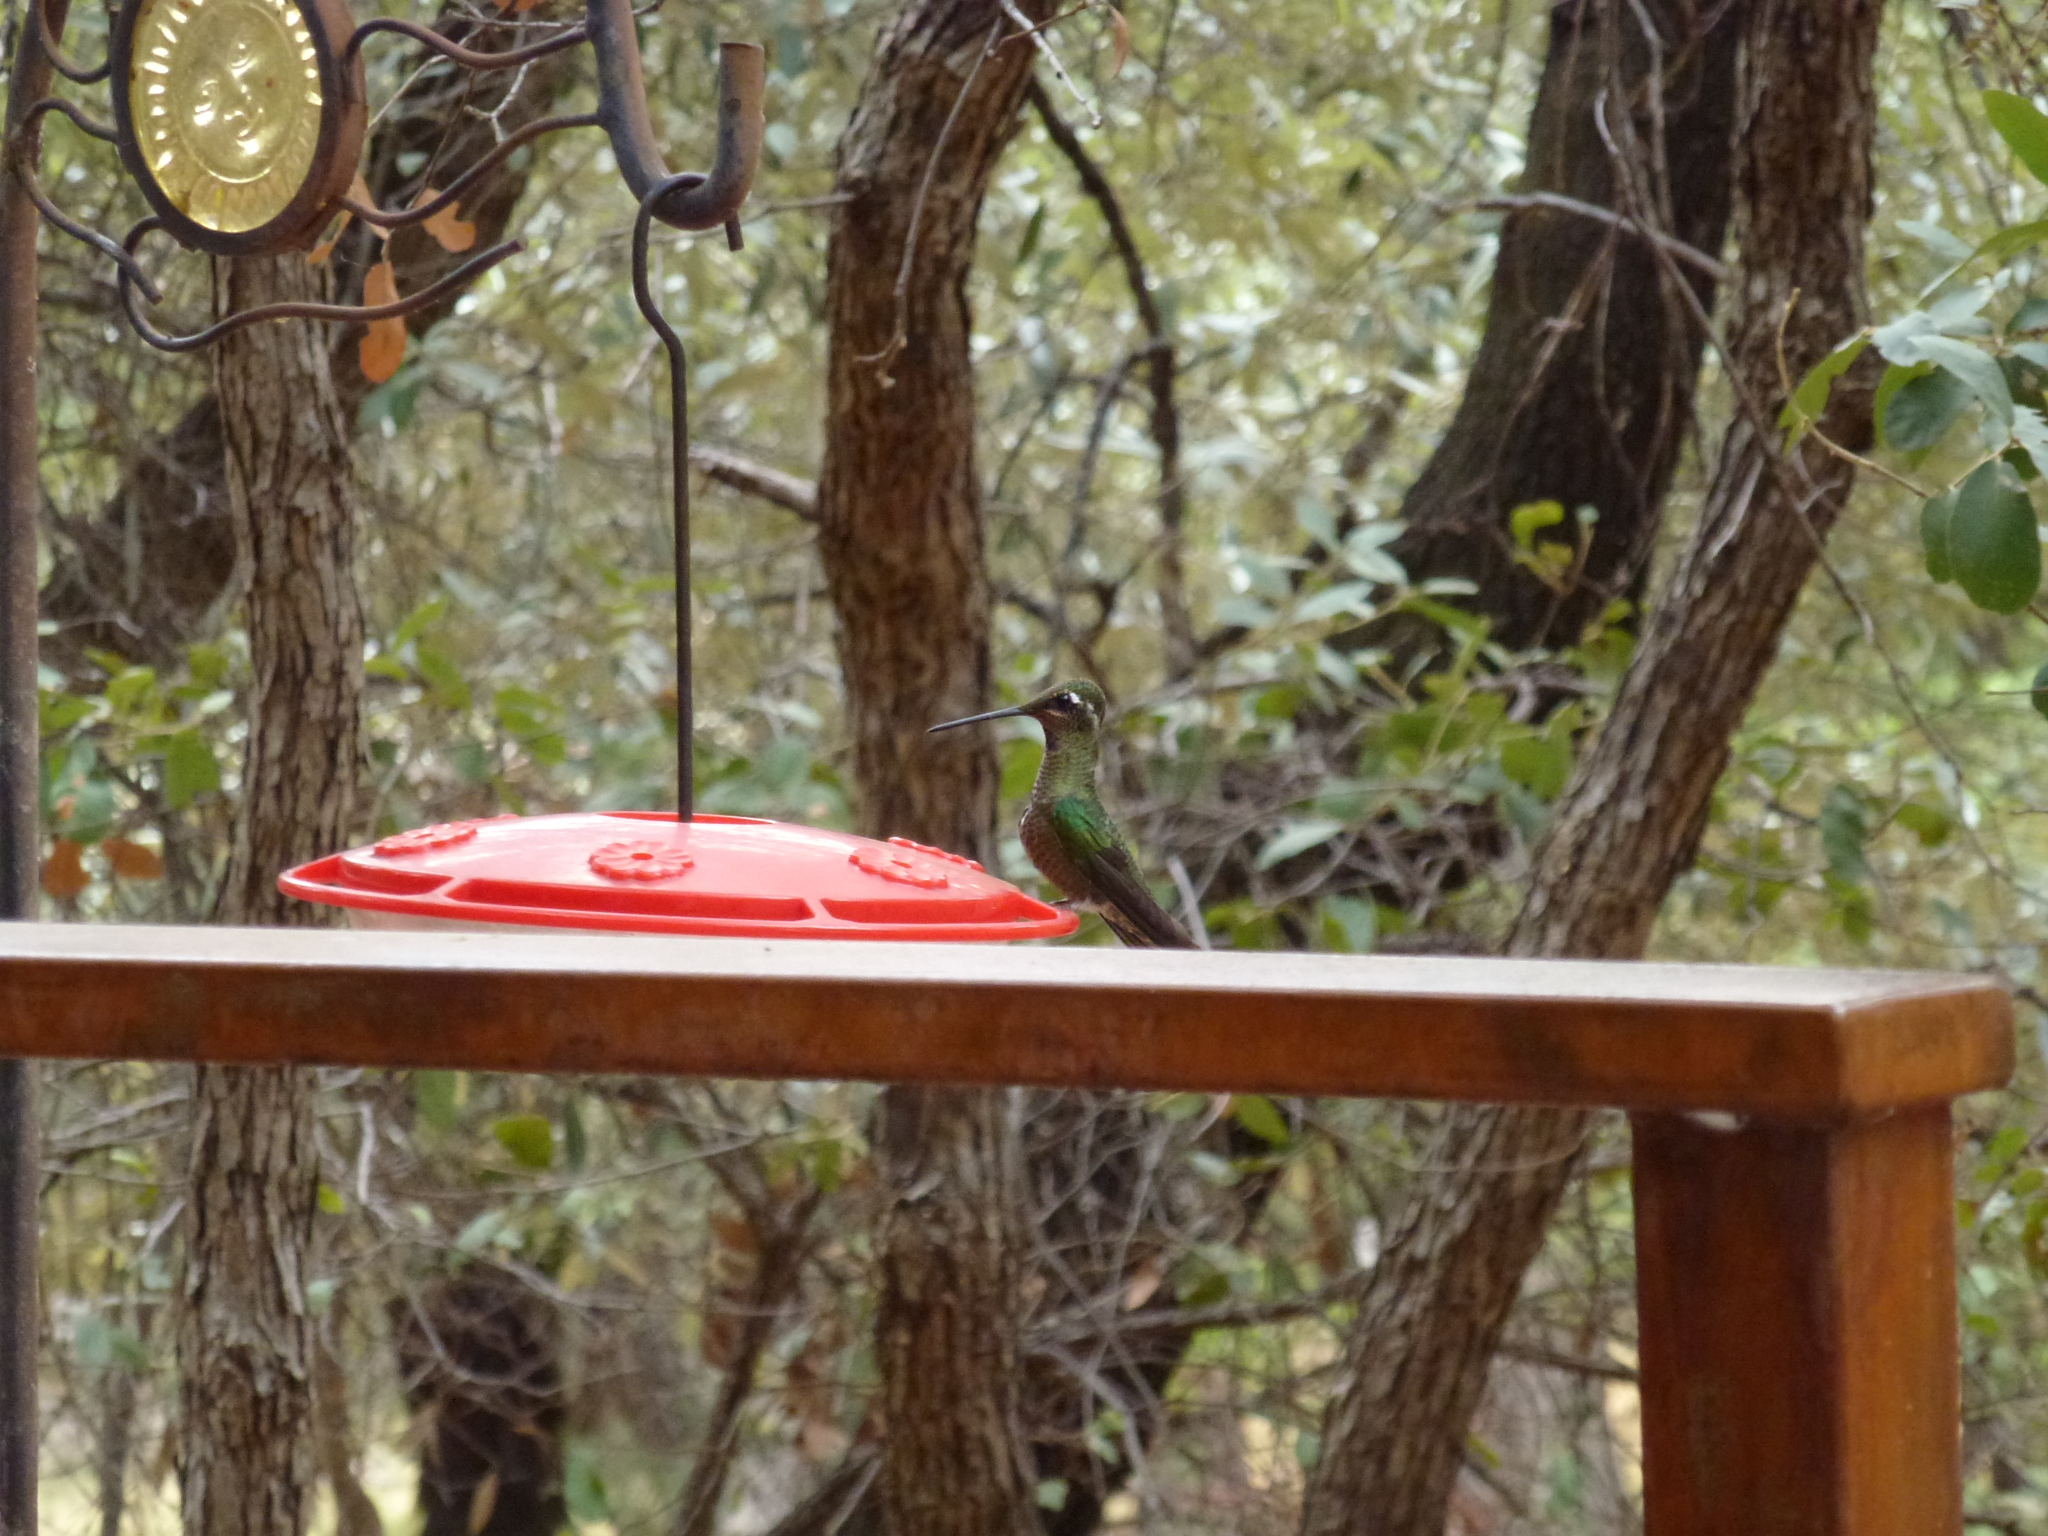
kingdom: Animalia
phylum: Chordata
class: Aves
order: Apodiformes
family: Trochilidae
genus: Eugenes
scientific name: Eugenes fulgens
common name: Magnificent hummingbird
